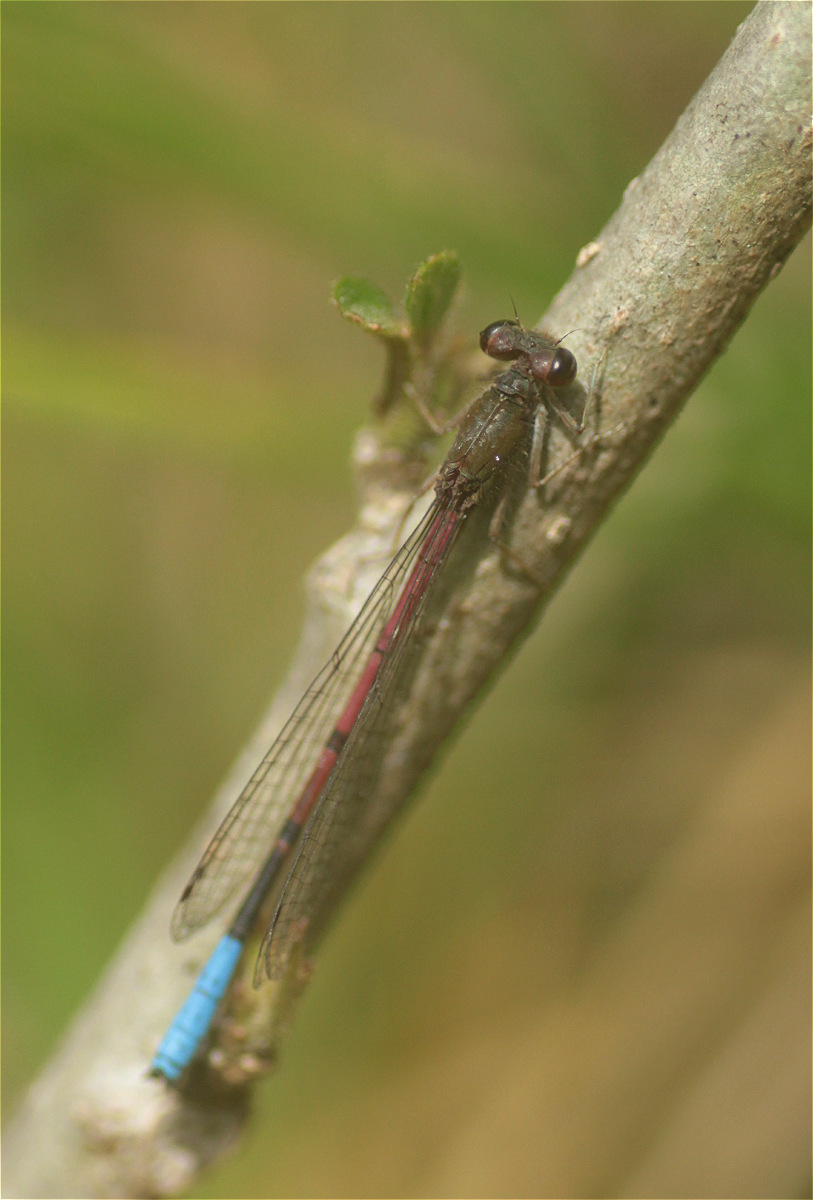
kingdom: Animalia
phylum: Arthropoda
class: Insecta
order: Odonata
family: Coenagrionidae
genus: Oxyallagma
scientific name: Oxyallagma dissidens
